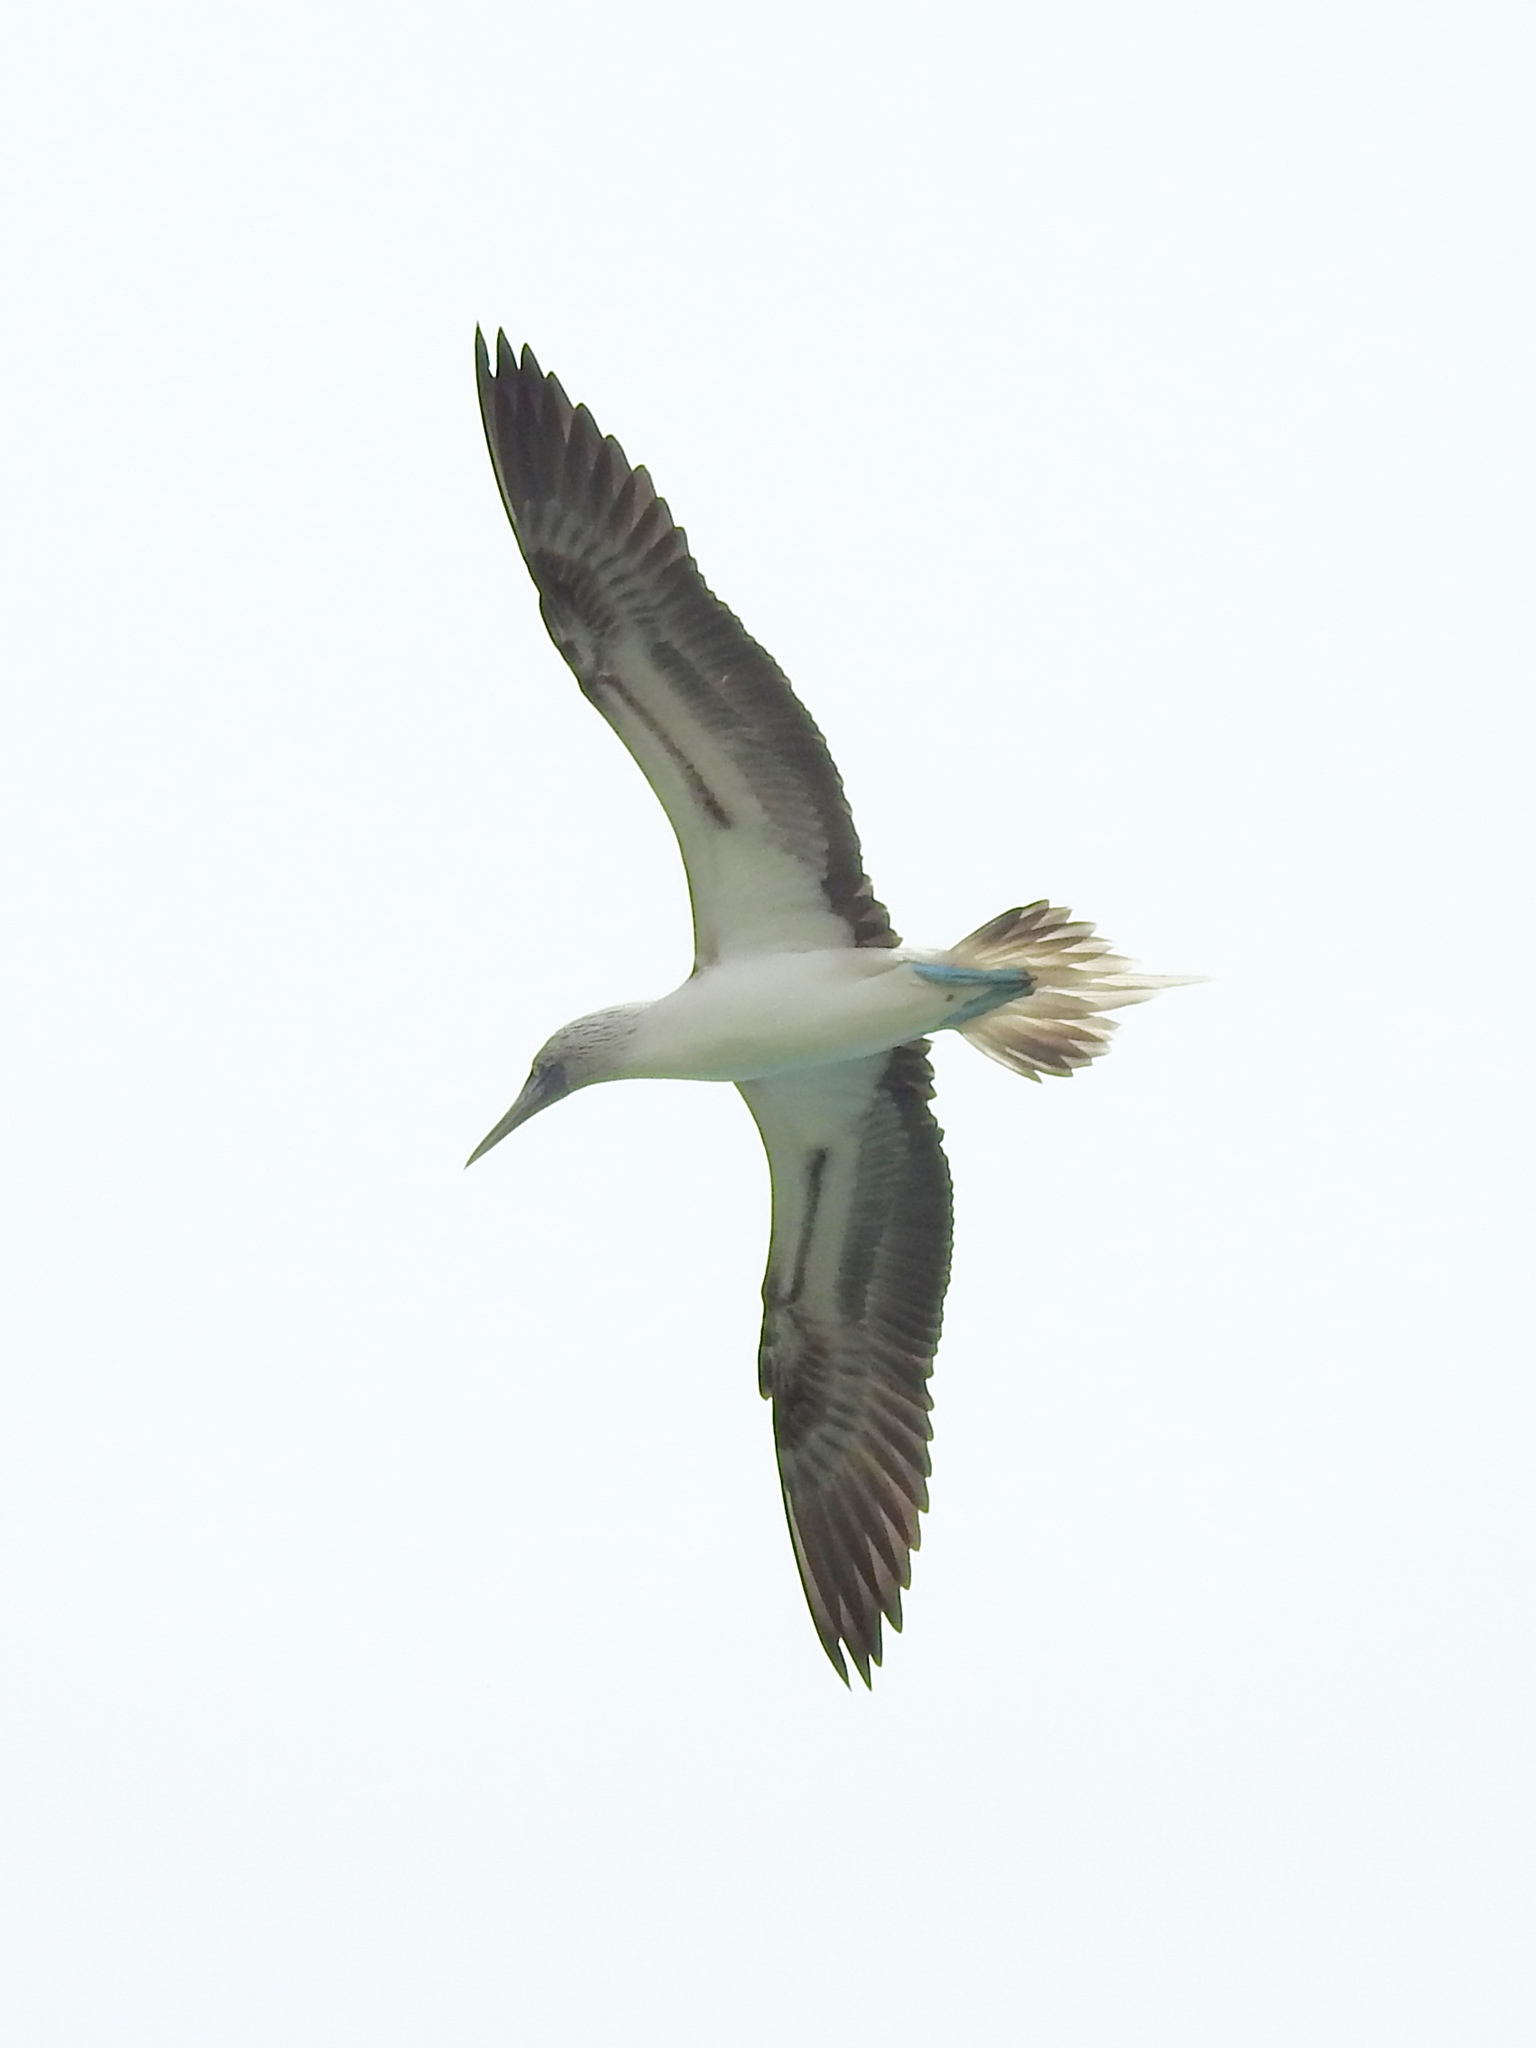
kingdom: Animalia
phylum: Chordata
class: Aves
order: Suliformes
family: Sulidae
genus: Sula
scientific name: Sula nebouxii
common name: Blue-footed booby
